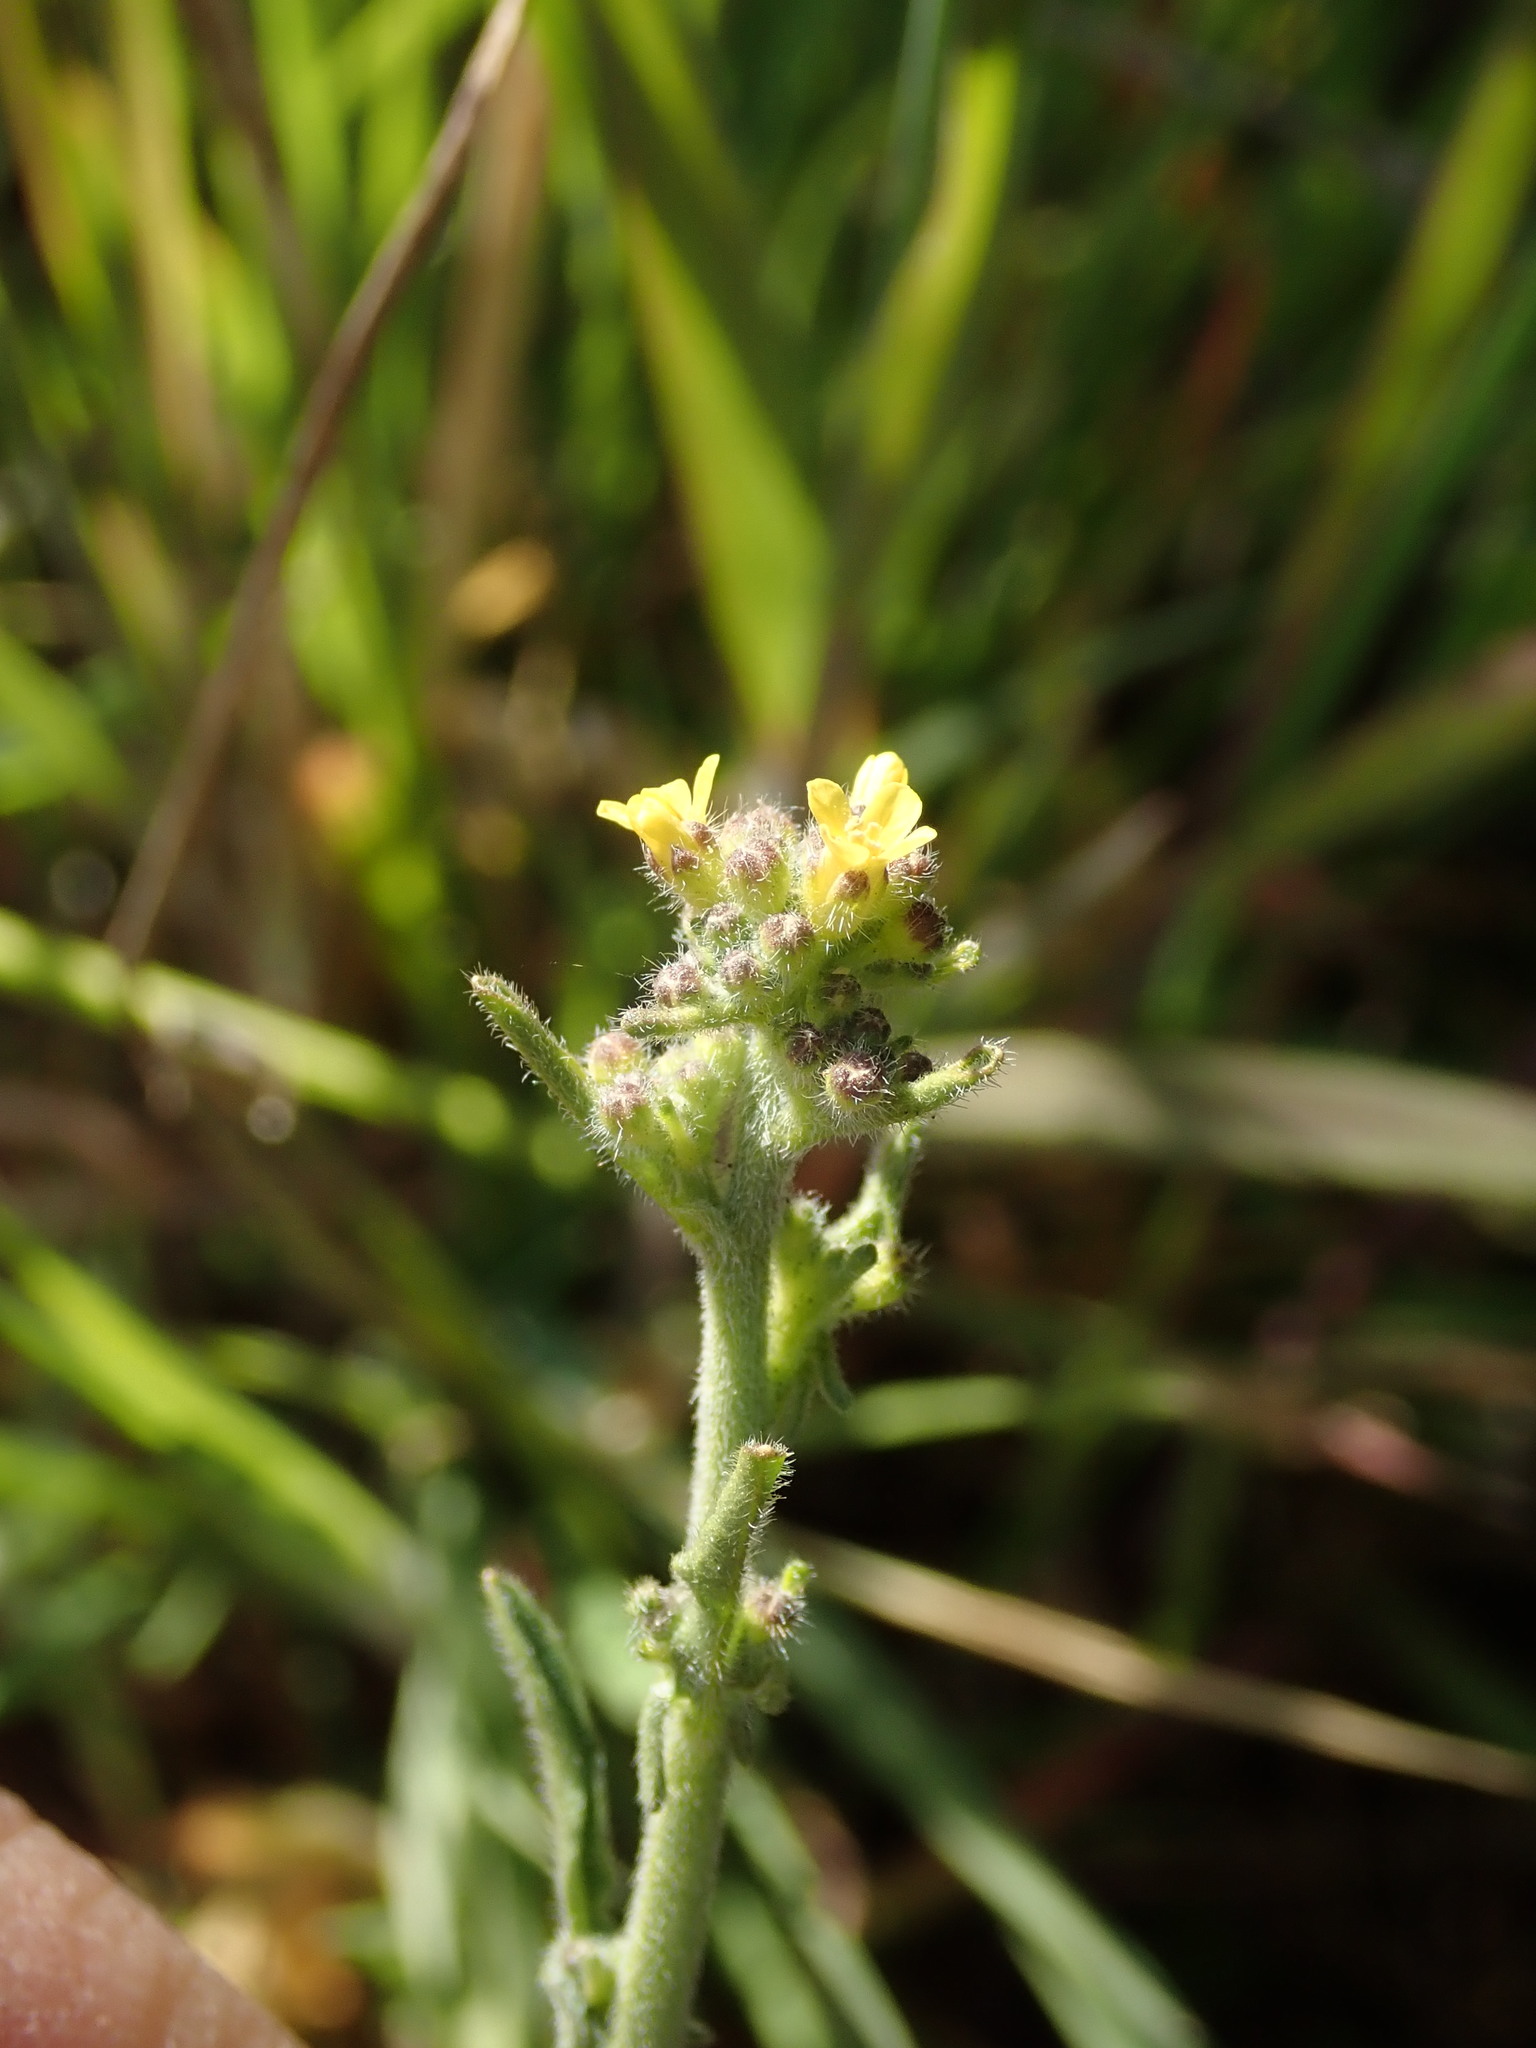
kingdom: Plantae
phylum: Tracheophyta
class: Magnoliopsida
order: Brassicales
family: Brassicaceae
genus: Sisymbrium
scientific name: Sisymbrium officinale
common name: Hedge mustard
